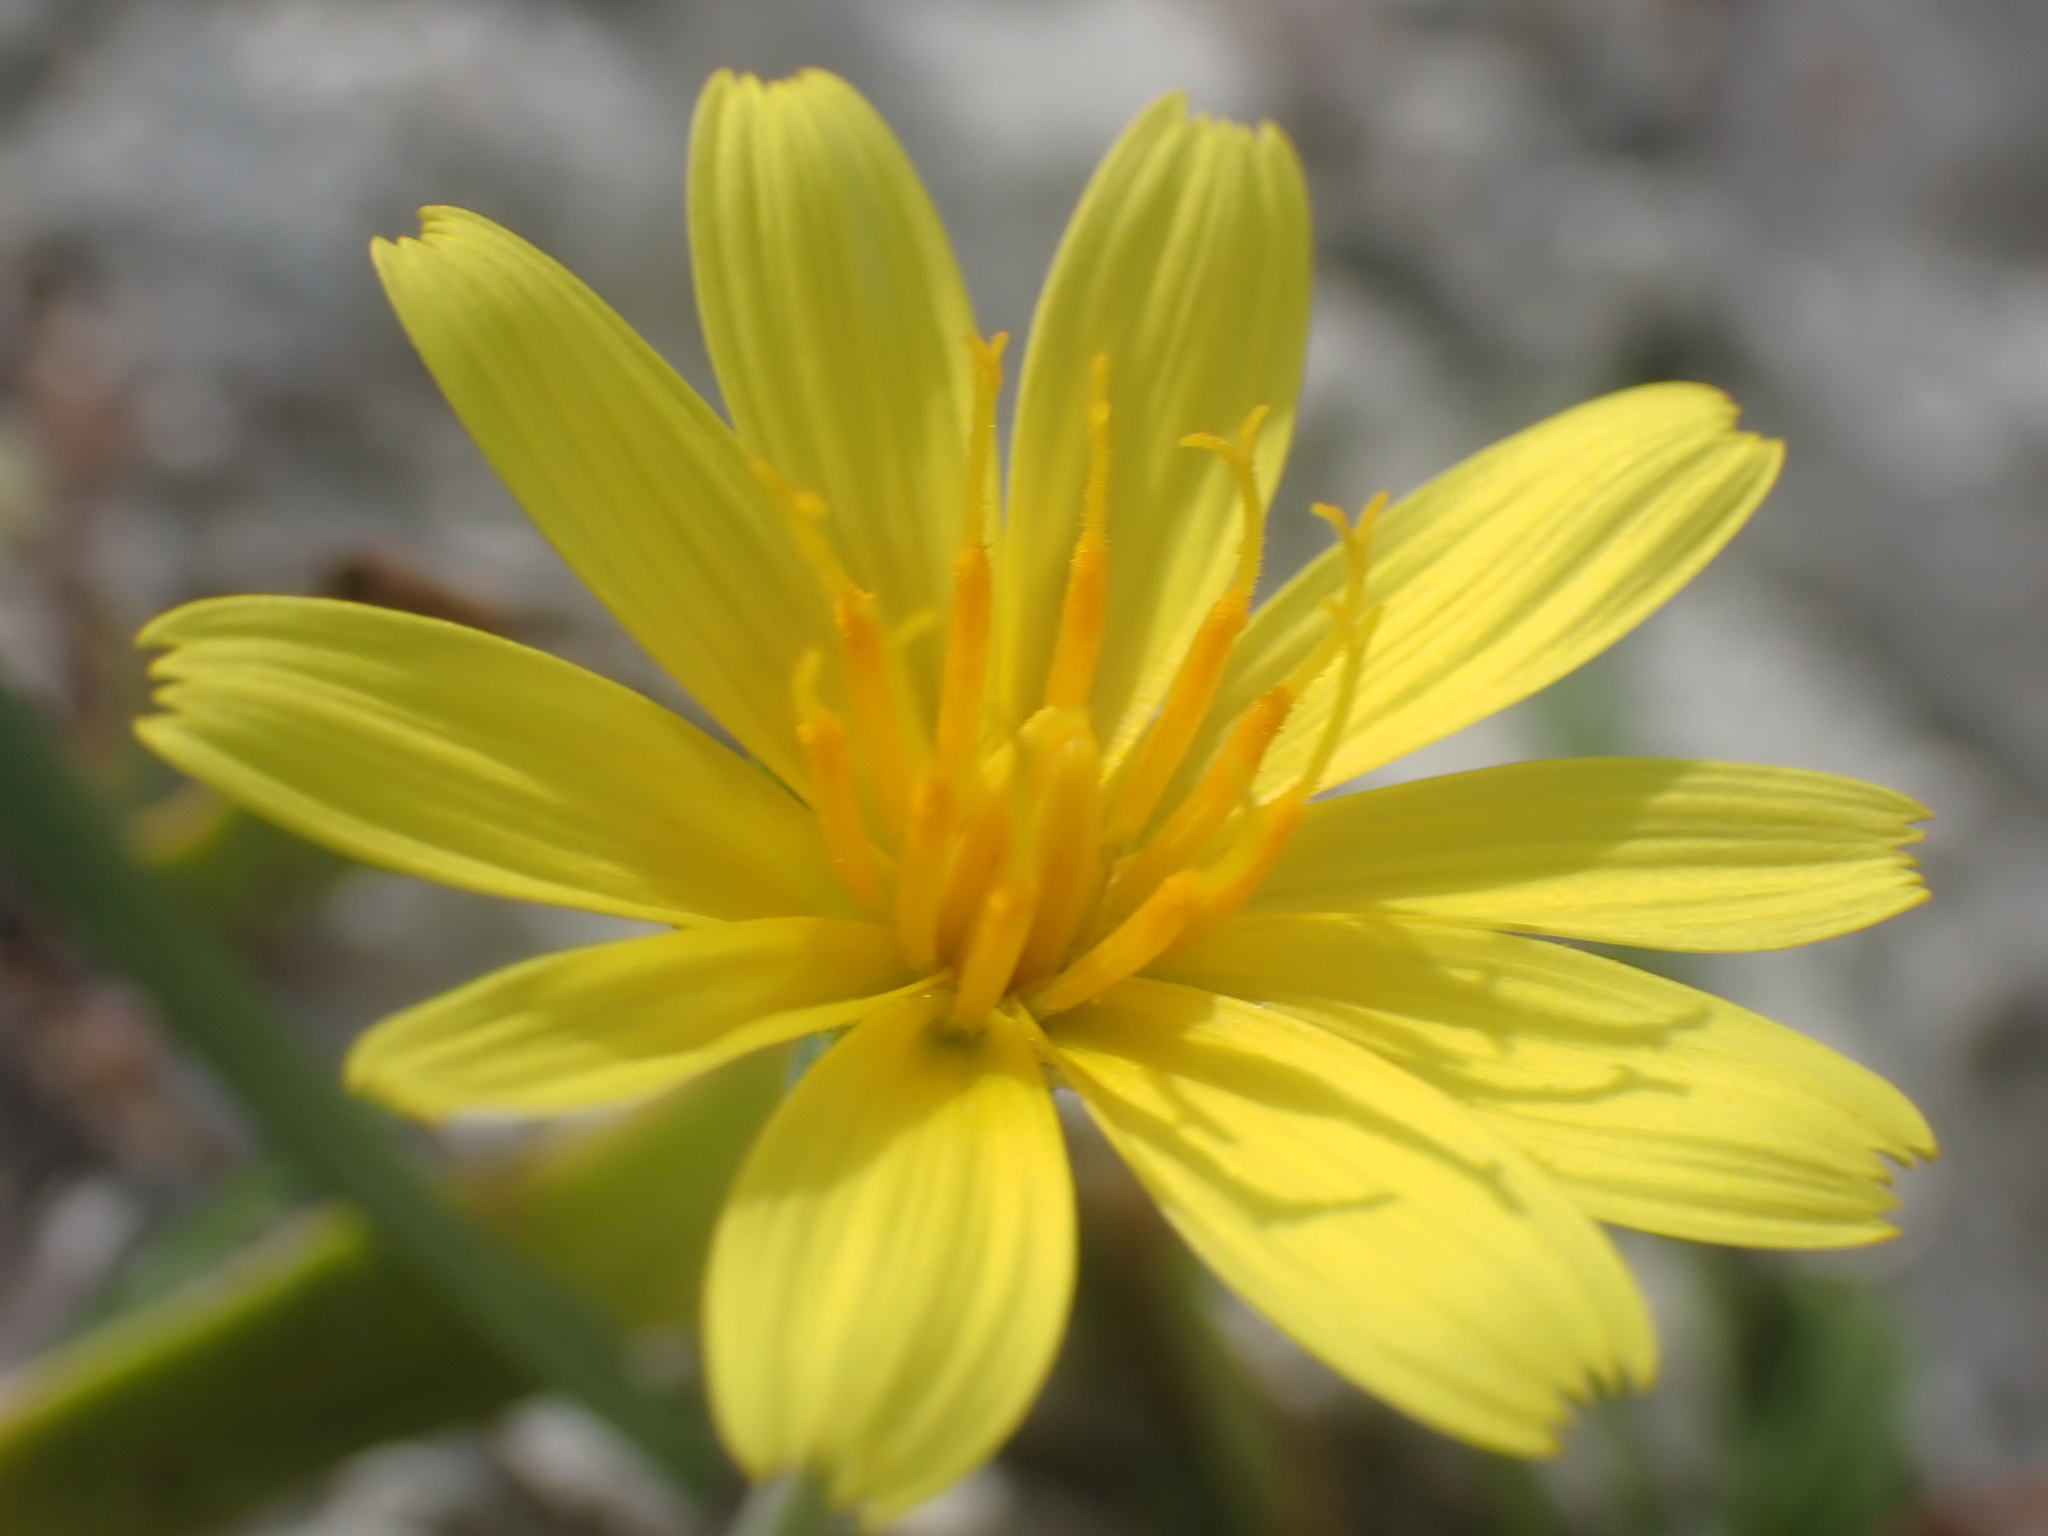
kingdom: Plantae
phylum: Tracheophyta
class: Magnoliopsida
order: Asterales
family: Asteraceae
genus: Microseris
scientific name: Microseris scapigera
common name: Yam daisy
